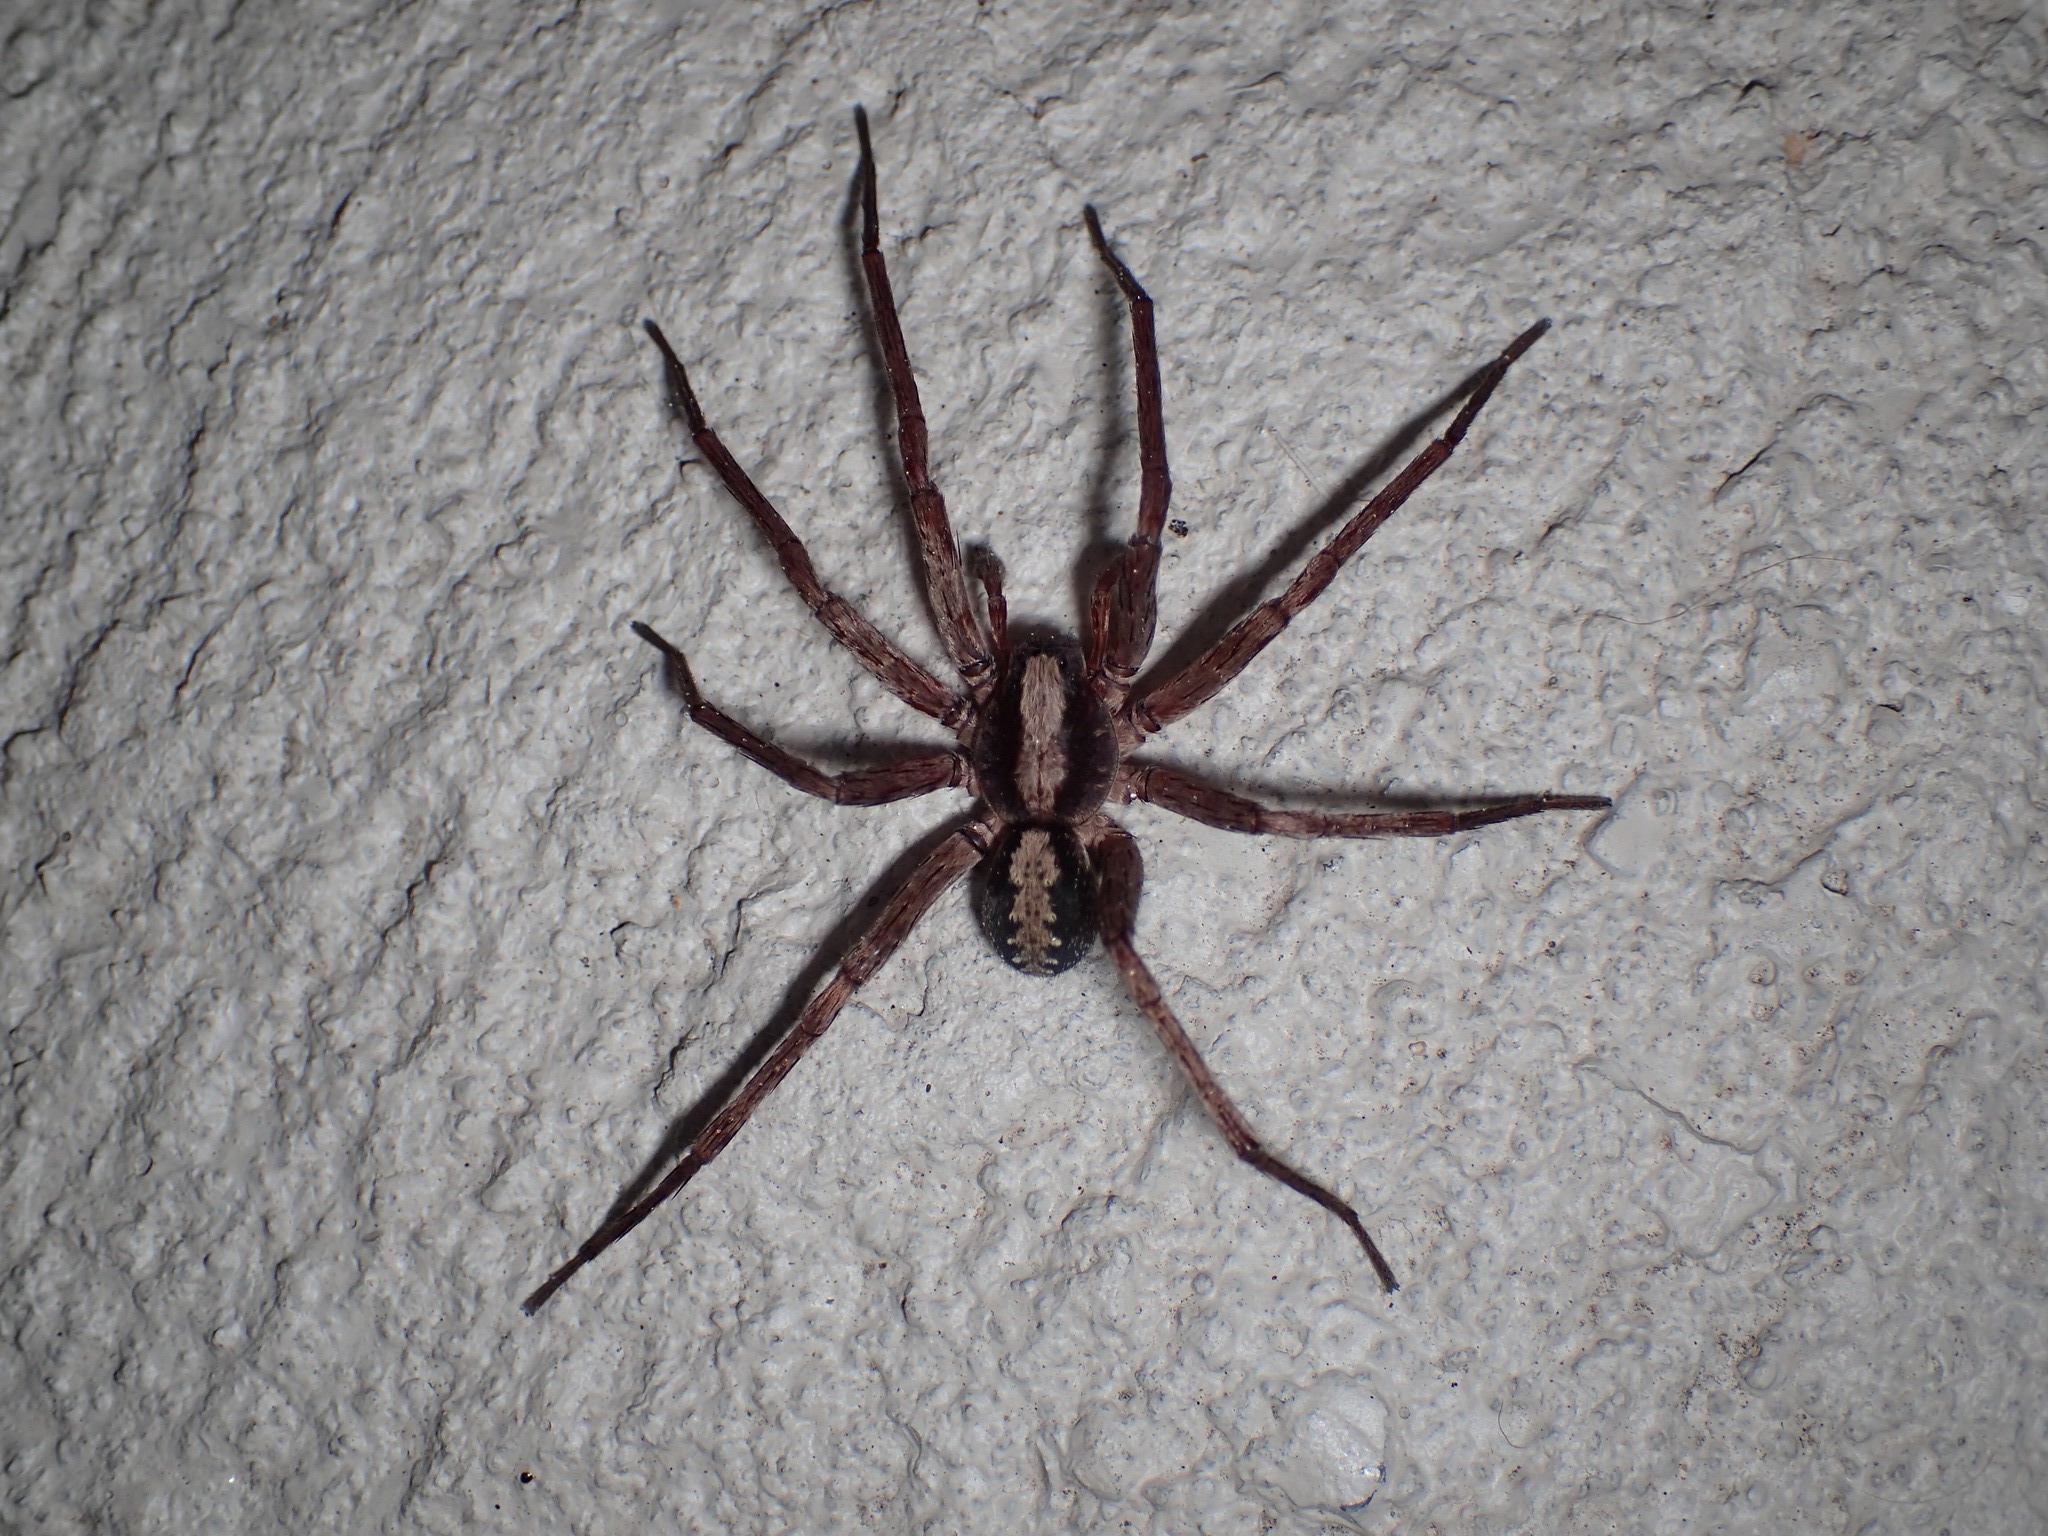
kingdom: Animalia
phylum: Arthropoda
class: Arachnida
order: Araneae
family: Ctenidae
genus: Ctenus
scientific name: Ctenus hibernalis
